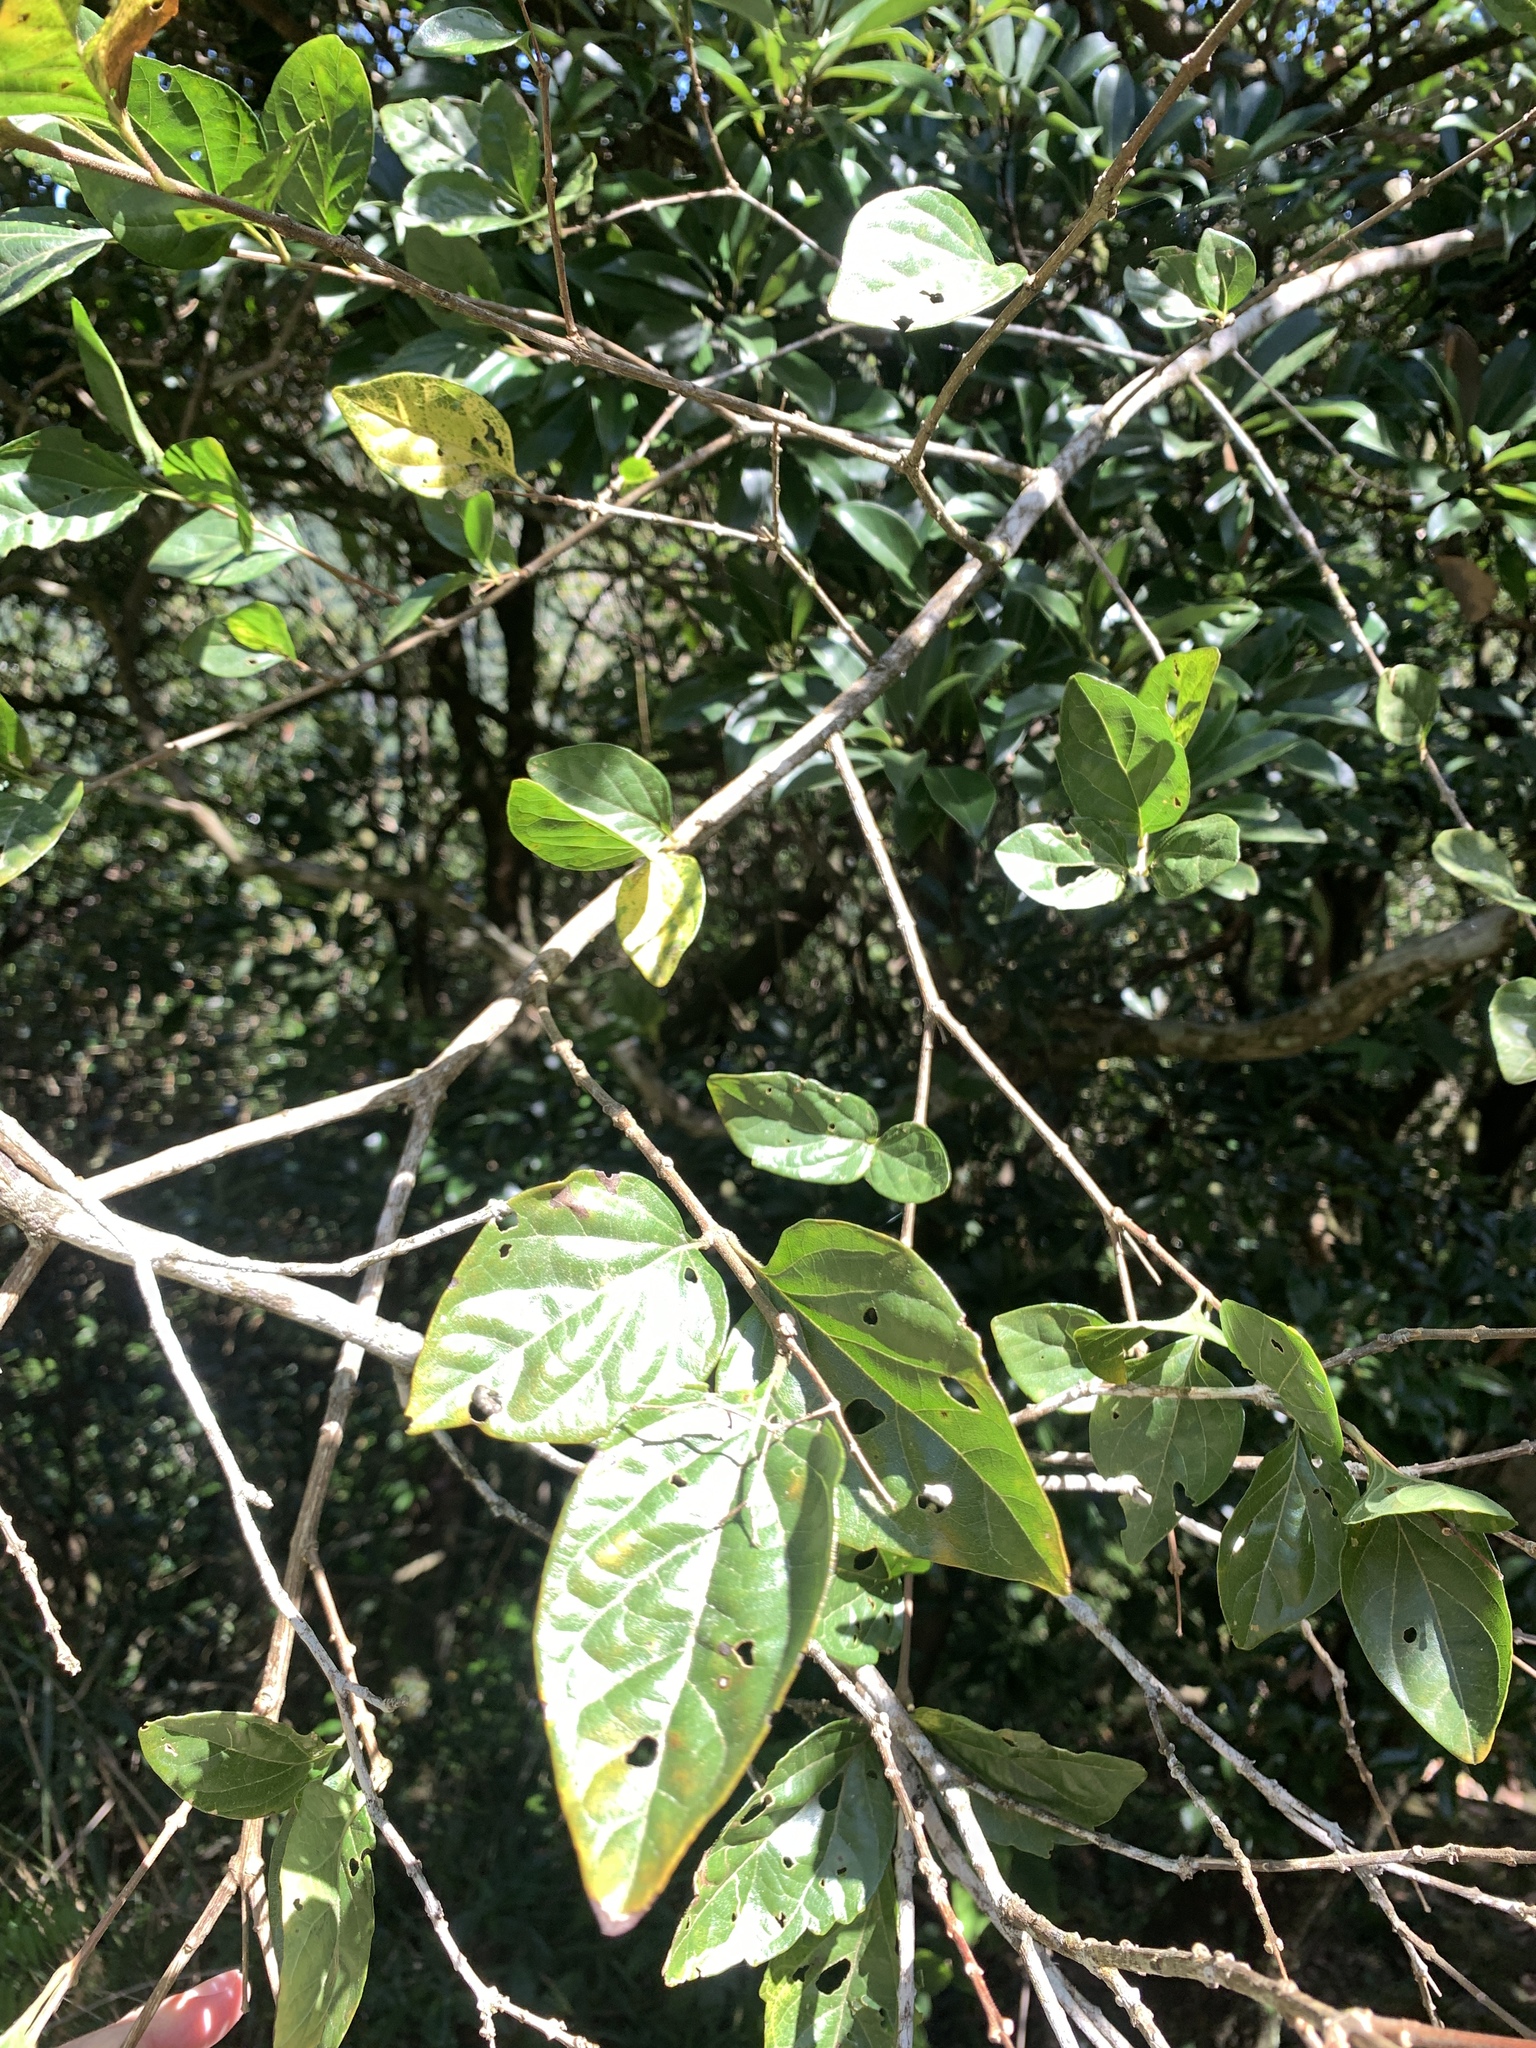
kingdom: Plantae
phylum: Tracheophyta
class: Magnoliopsida
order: Lamiales
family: Lamiaceae
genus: Premna
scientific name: Premna microphylla
